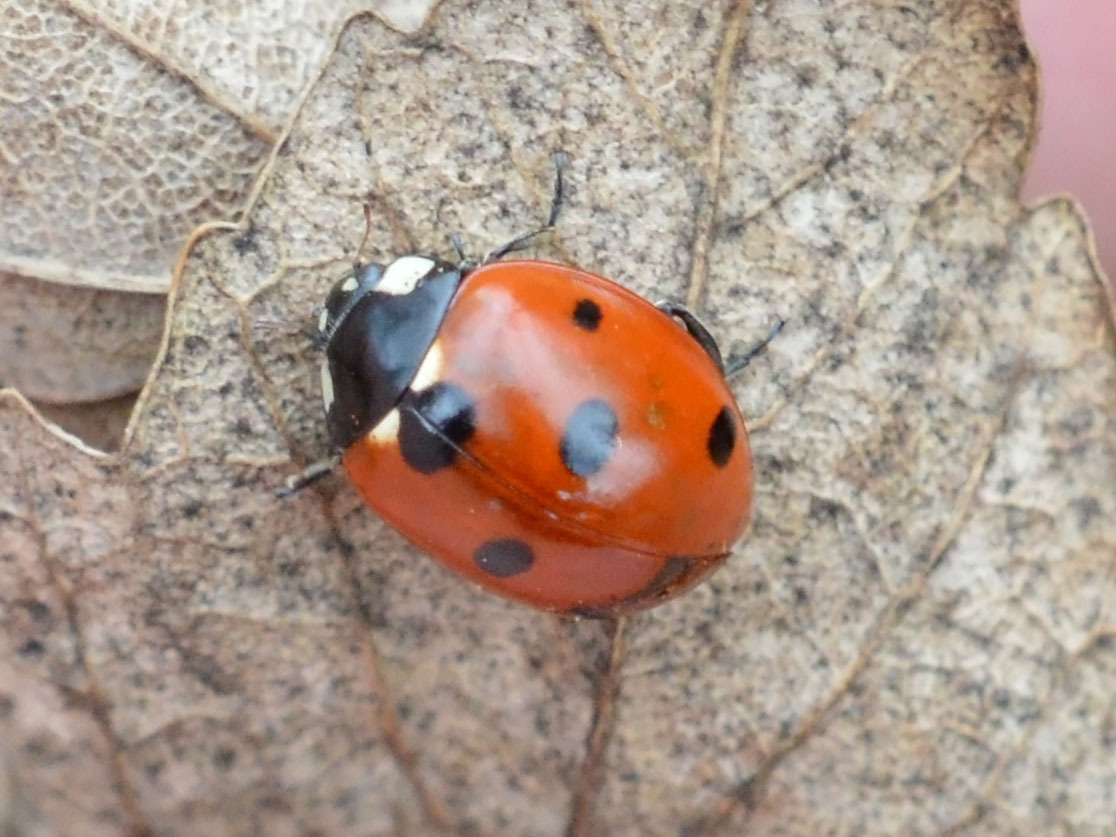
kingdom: Animalia
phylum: Arthropoda
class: Insecta
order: Coleoptera
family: Coccinellidae
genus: Coccinella
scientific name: Coccinella septempunctata
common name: Sevenspotted lady beetle
